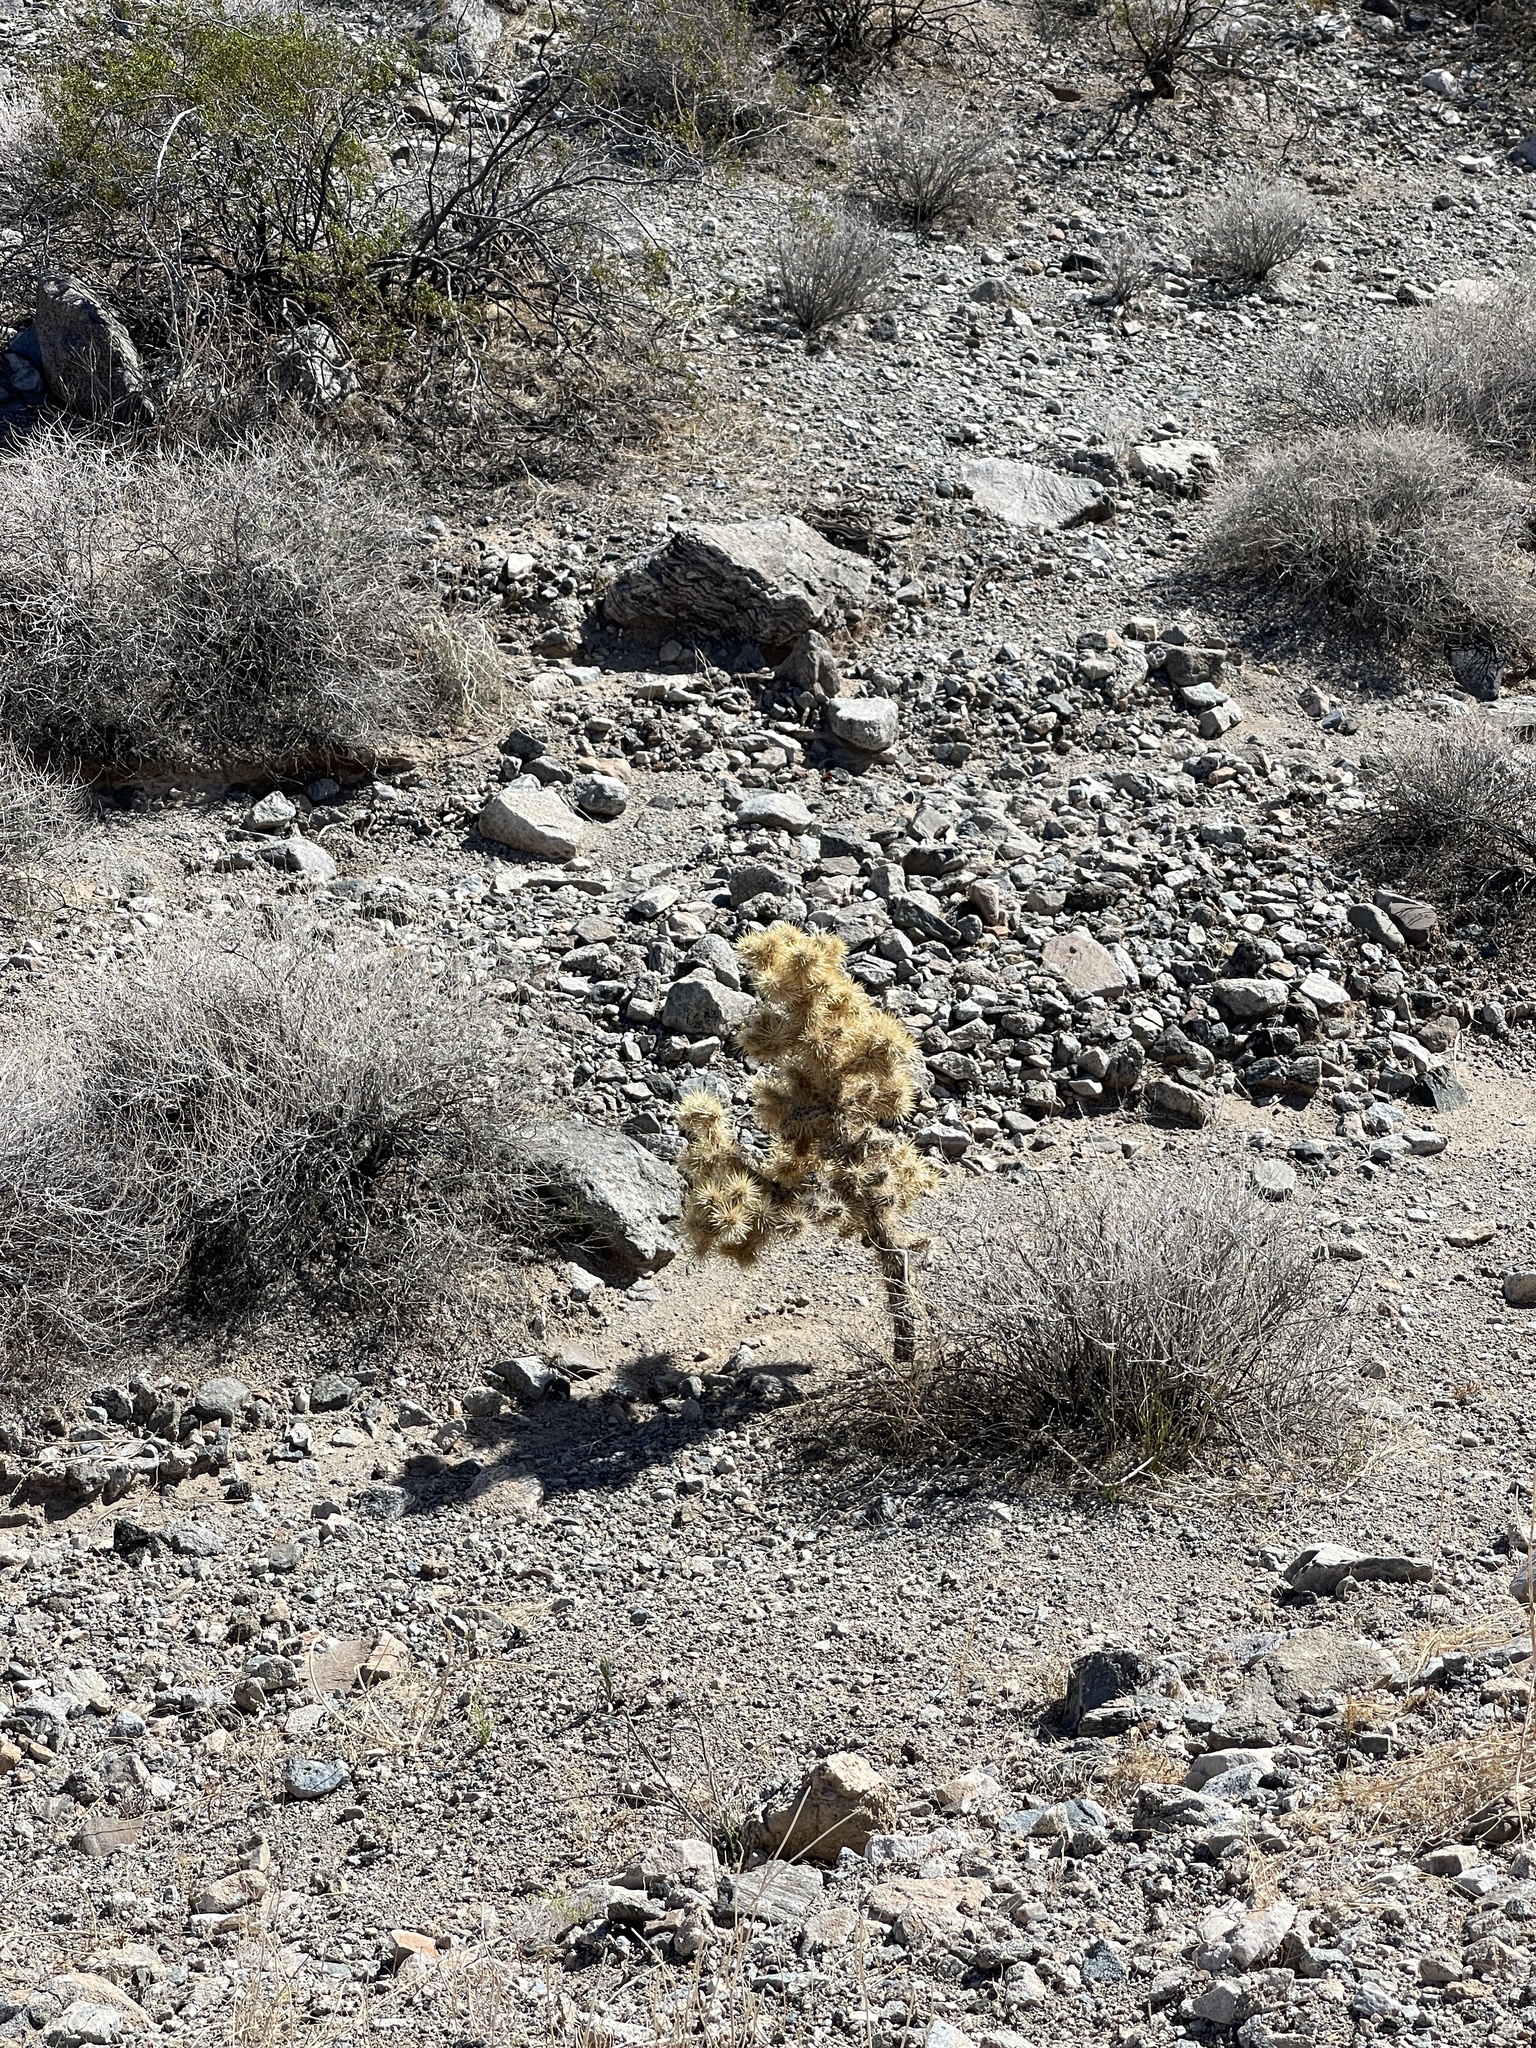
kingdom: Plantae
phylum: Tracheophyta
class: Magnoliopsida
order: Caryophyllales
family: Cactaceae
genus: Cylindropuntia
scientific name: Cylindropuntia echinocarpa
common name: Ground cholla
